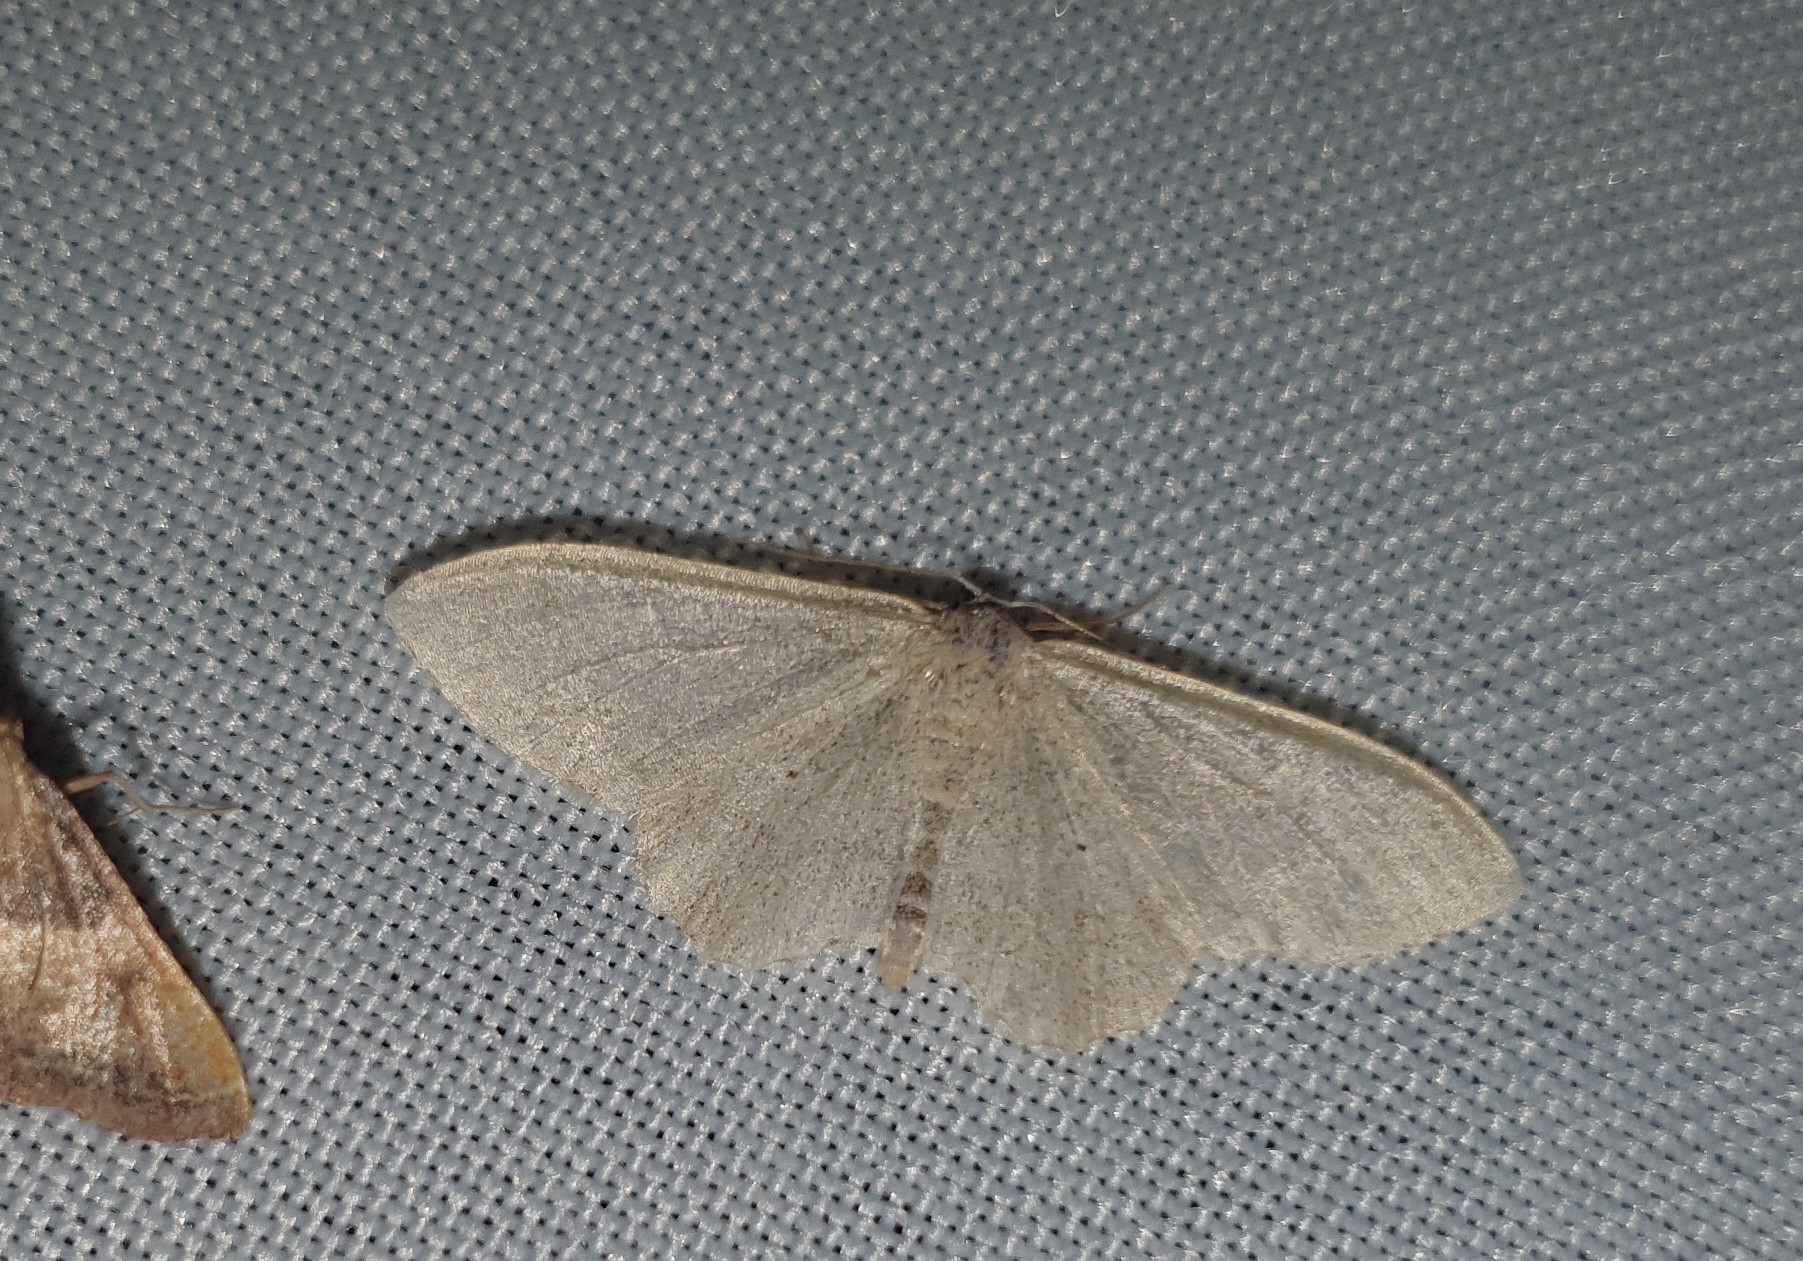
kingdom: Animalia
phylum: Arthropoda
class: Insecta
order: Lepidoptera
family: Geometridae
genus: Idaea
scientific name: Idaea straminata
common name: Plain wave
